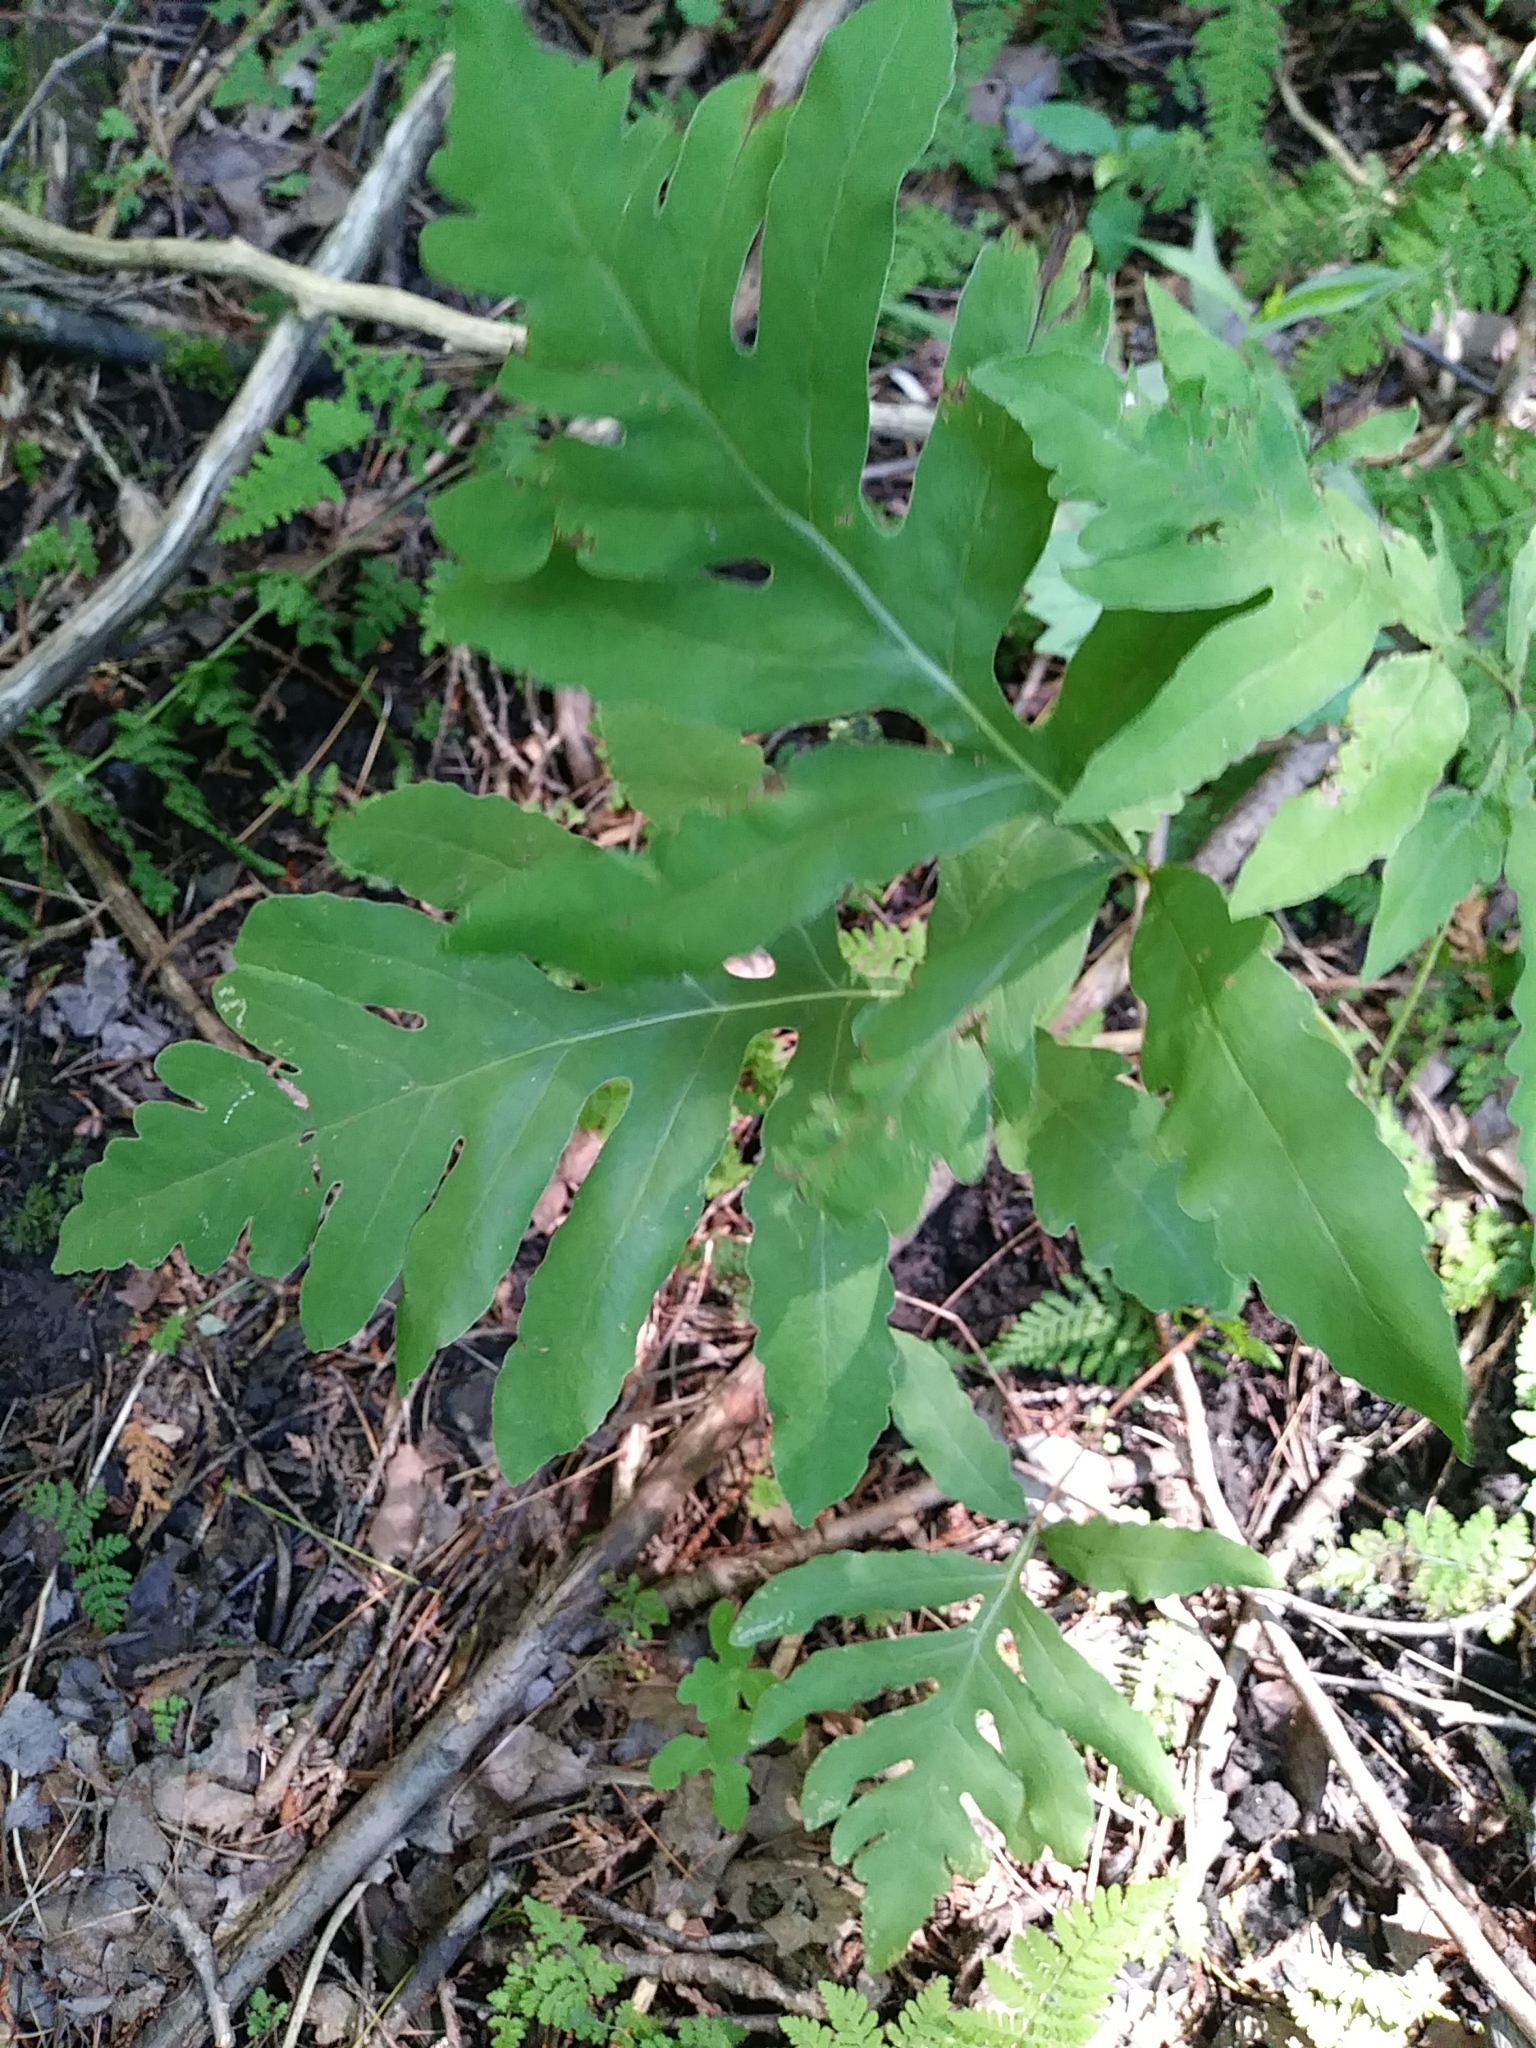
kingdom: Plantae
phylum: Tracheophyta
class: Polypodiopsida
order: Polypodiales
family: Onocleaceae
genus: Onoclea
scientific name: Onoclea sensibilis
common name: Sensitive fern
